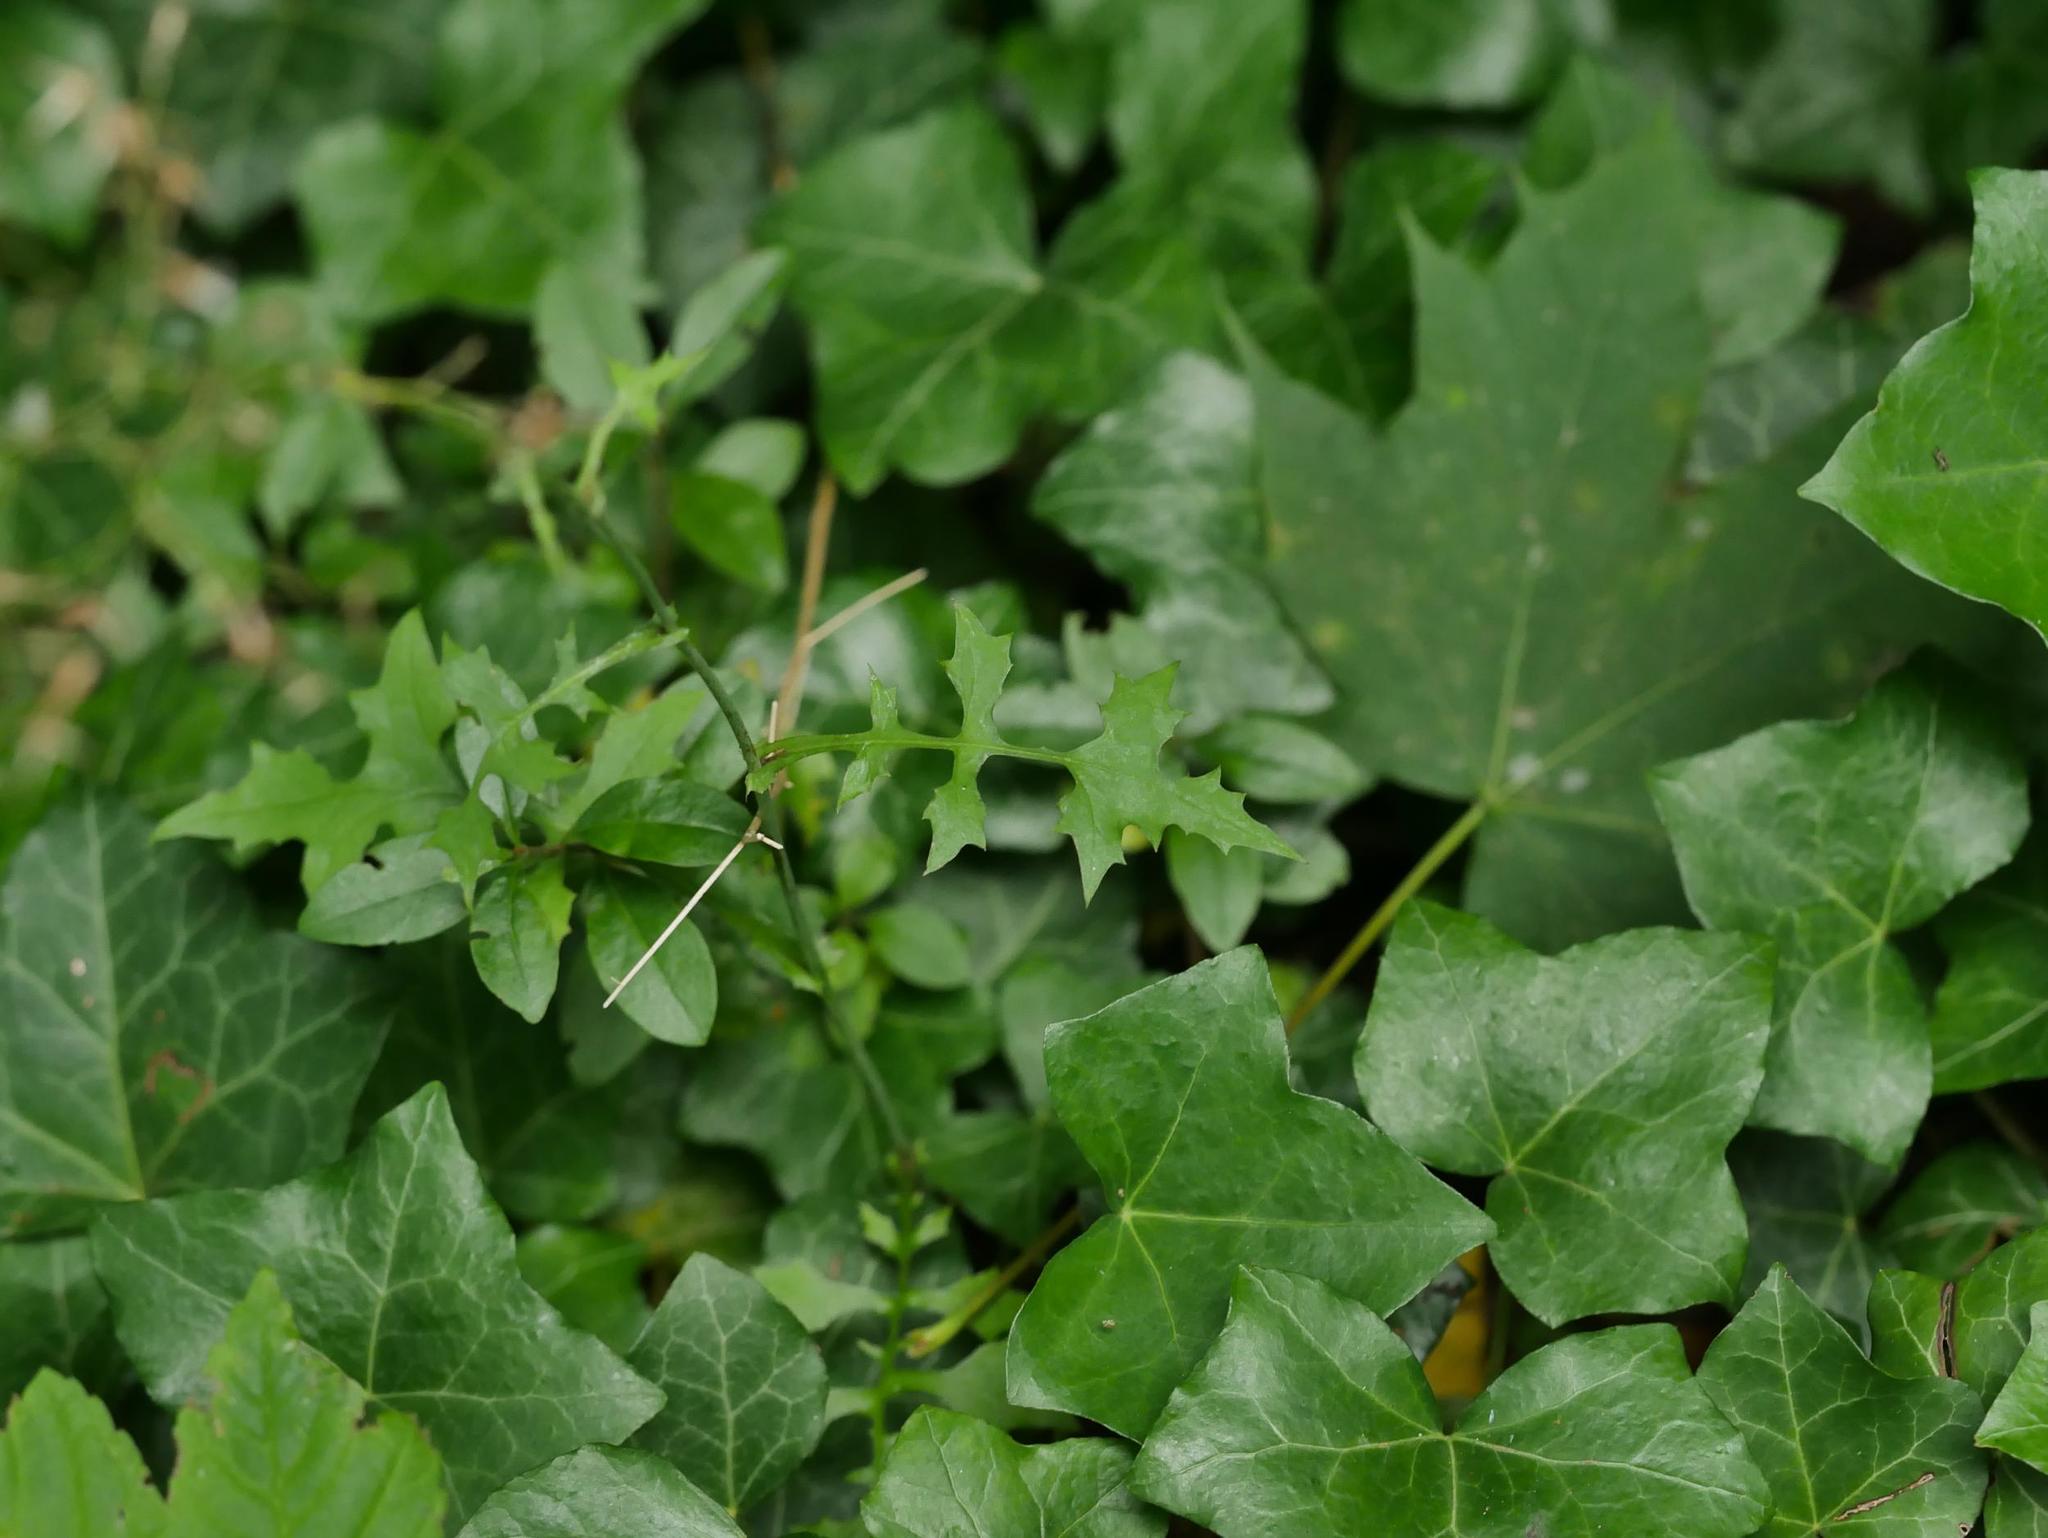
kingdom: Plantae
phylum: Tracheophyta
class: Magnoliopsida
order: Asterales
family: Asteraceae
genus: Mycelis
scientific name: Mycelis muralis
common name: Wall lettuce
